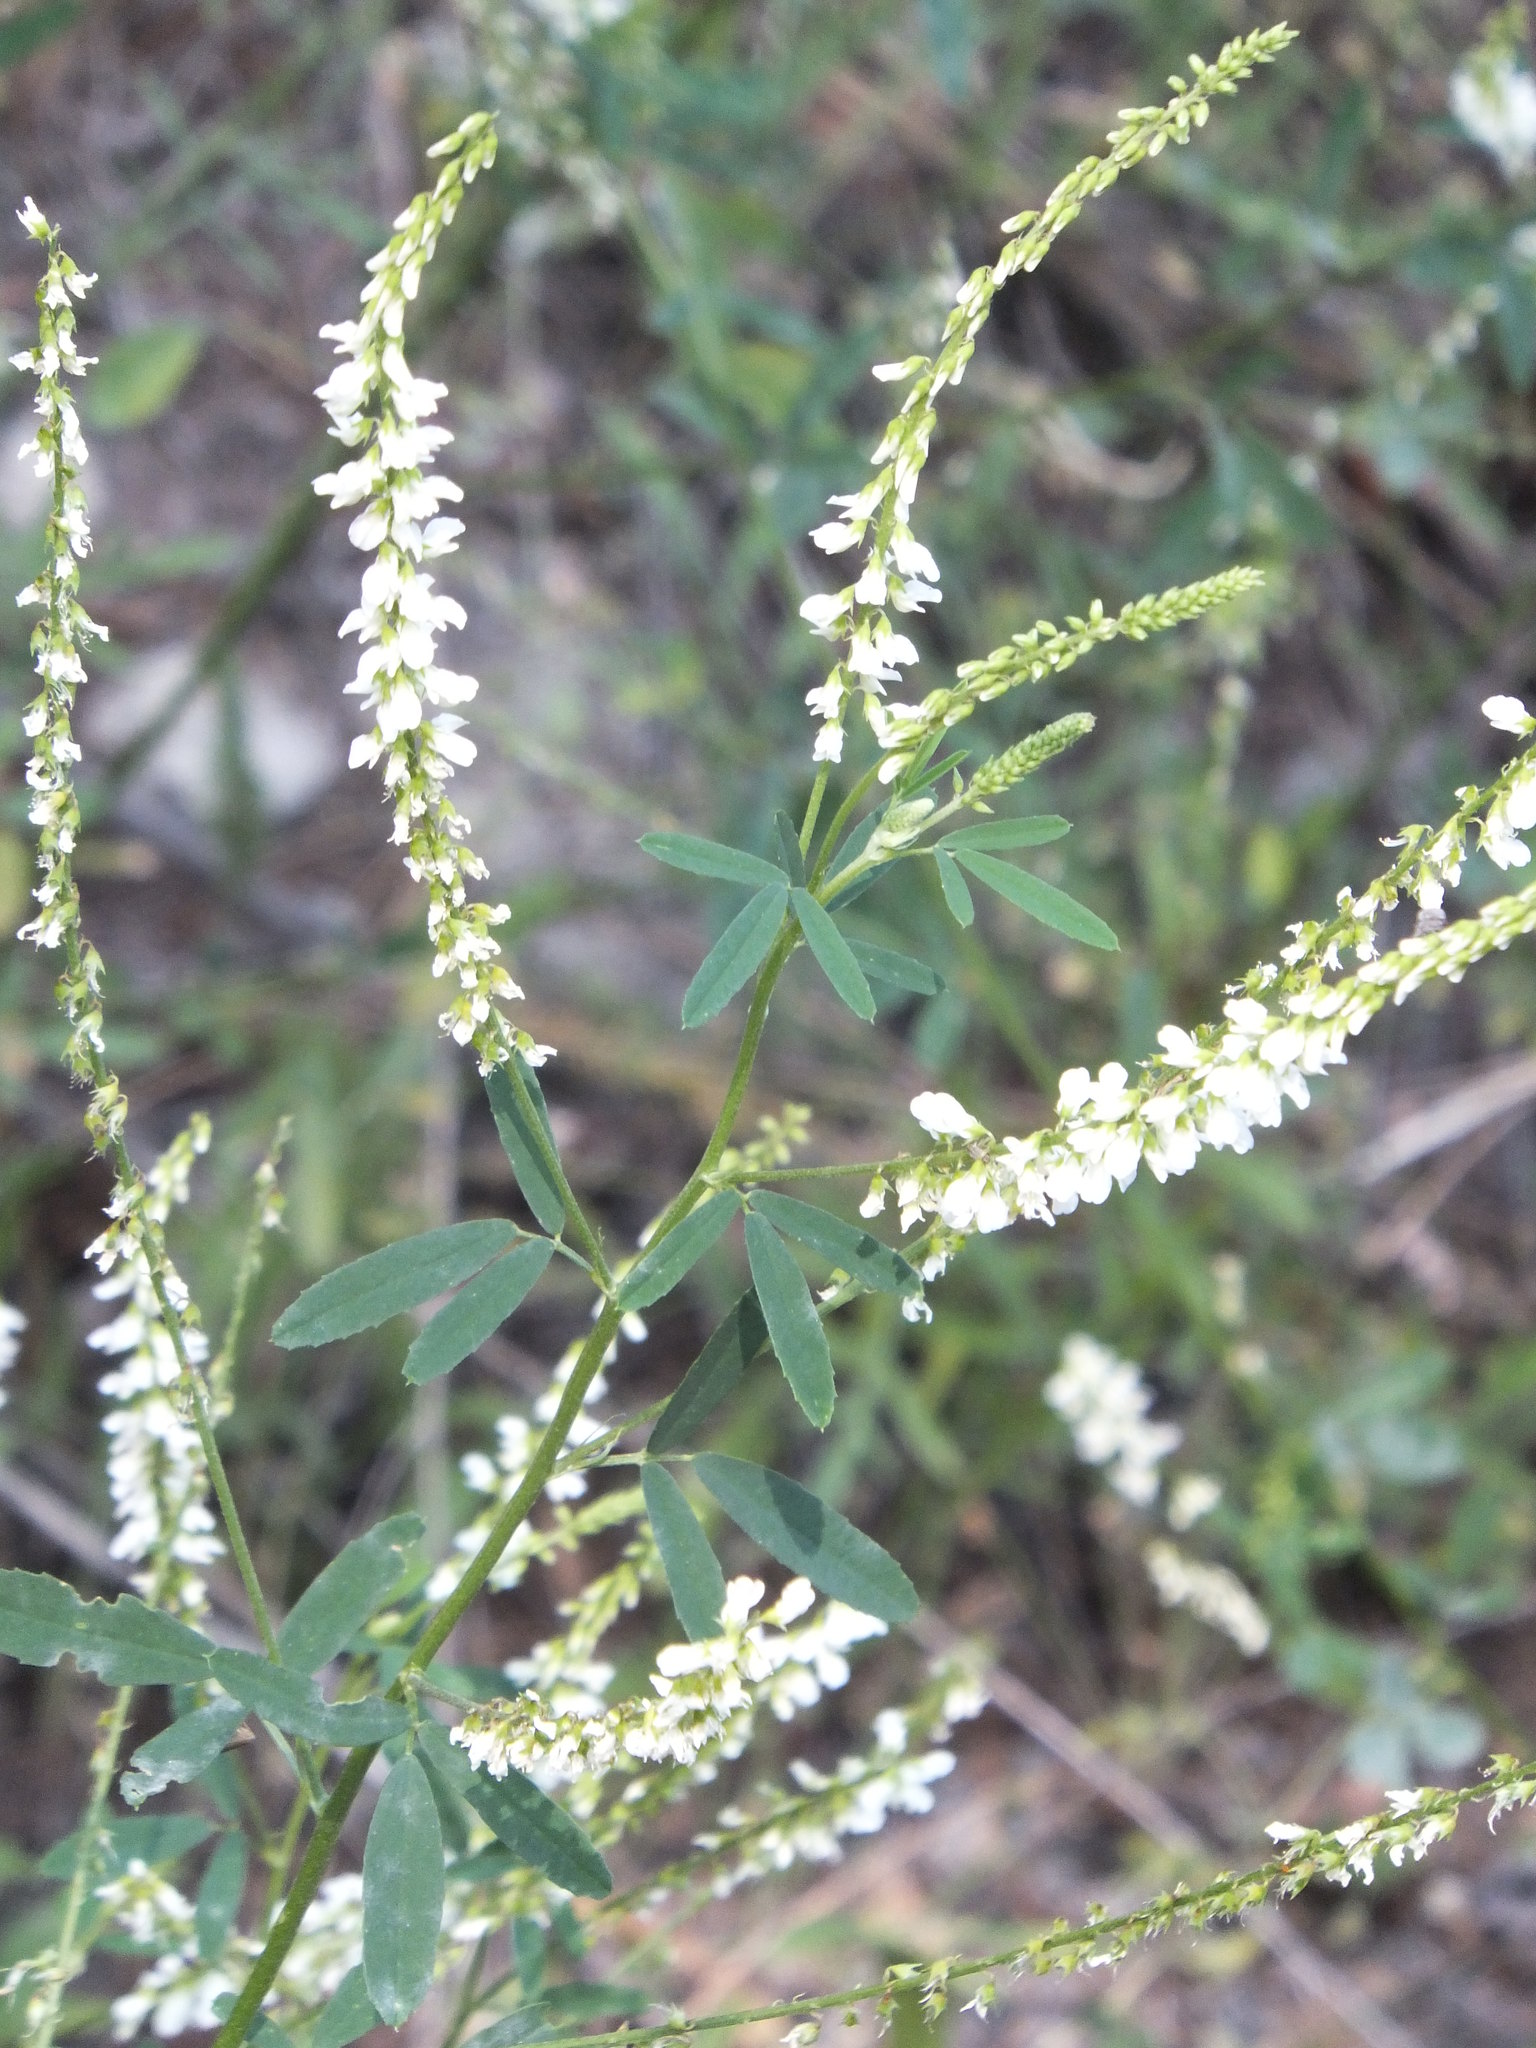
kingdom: Plantae
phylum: Tracheophyta
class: Magnoliopsida
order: Fabales
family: Fabaceae
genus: Melilotus
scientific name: Melilotus albus
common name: White melilot
